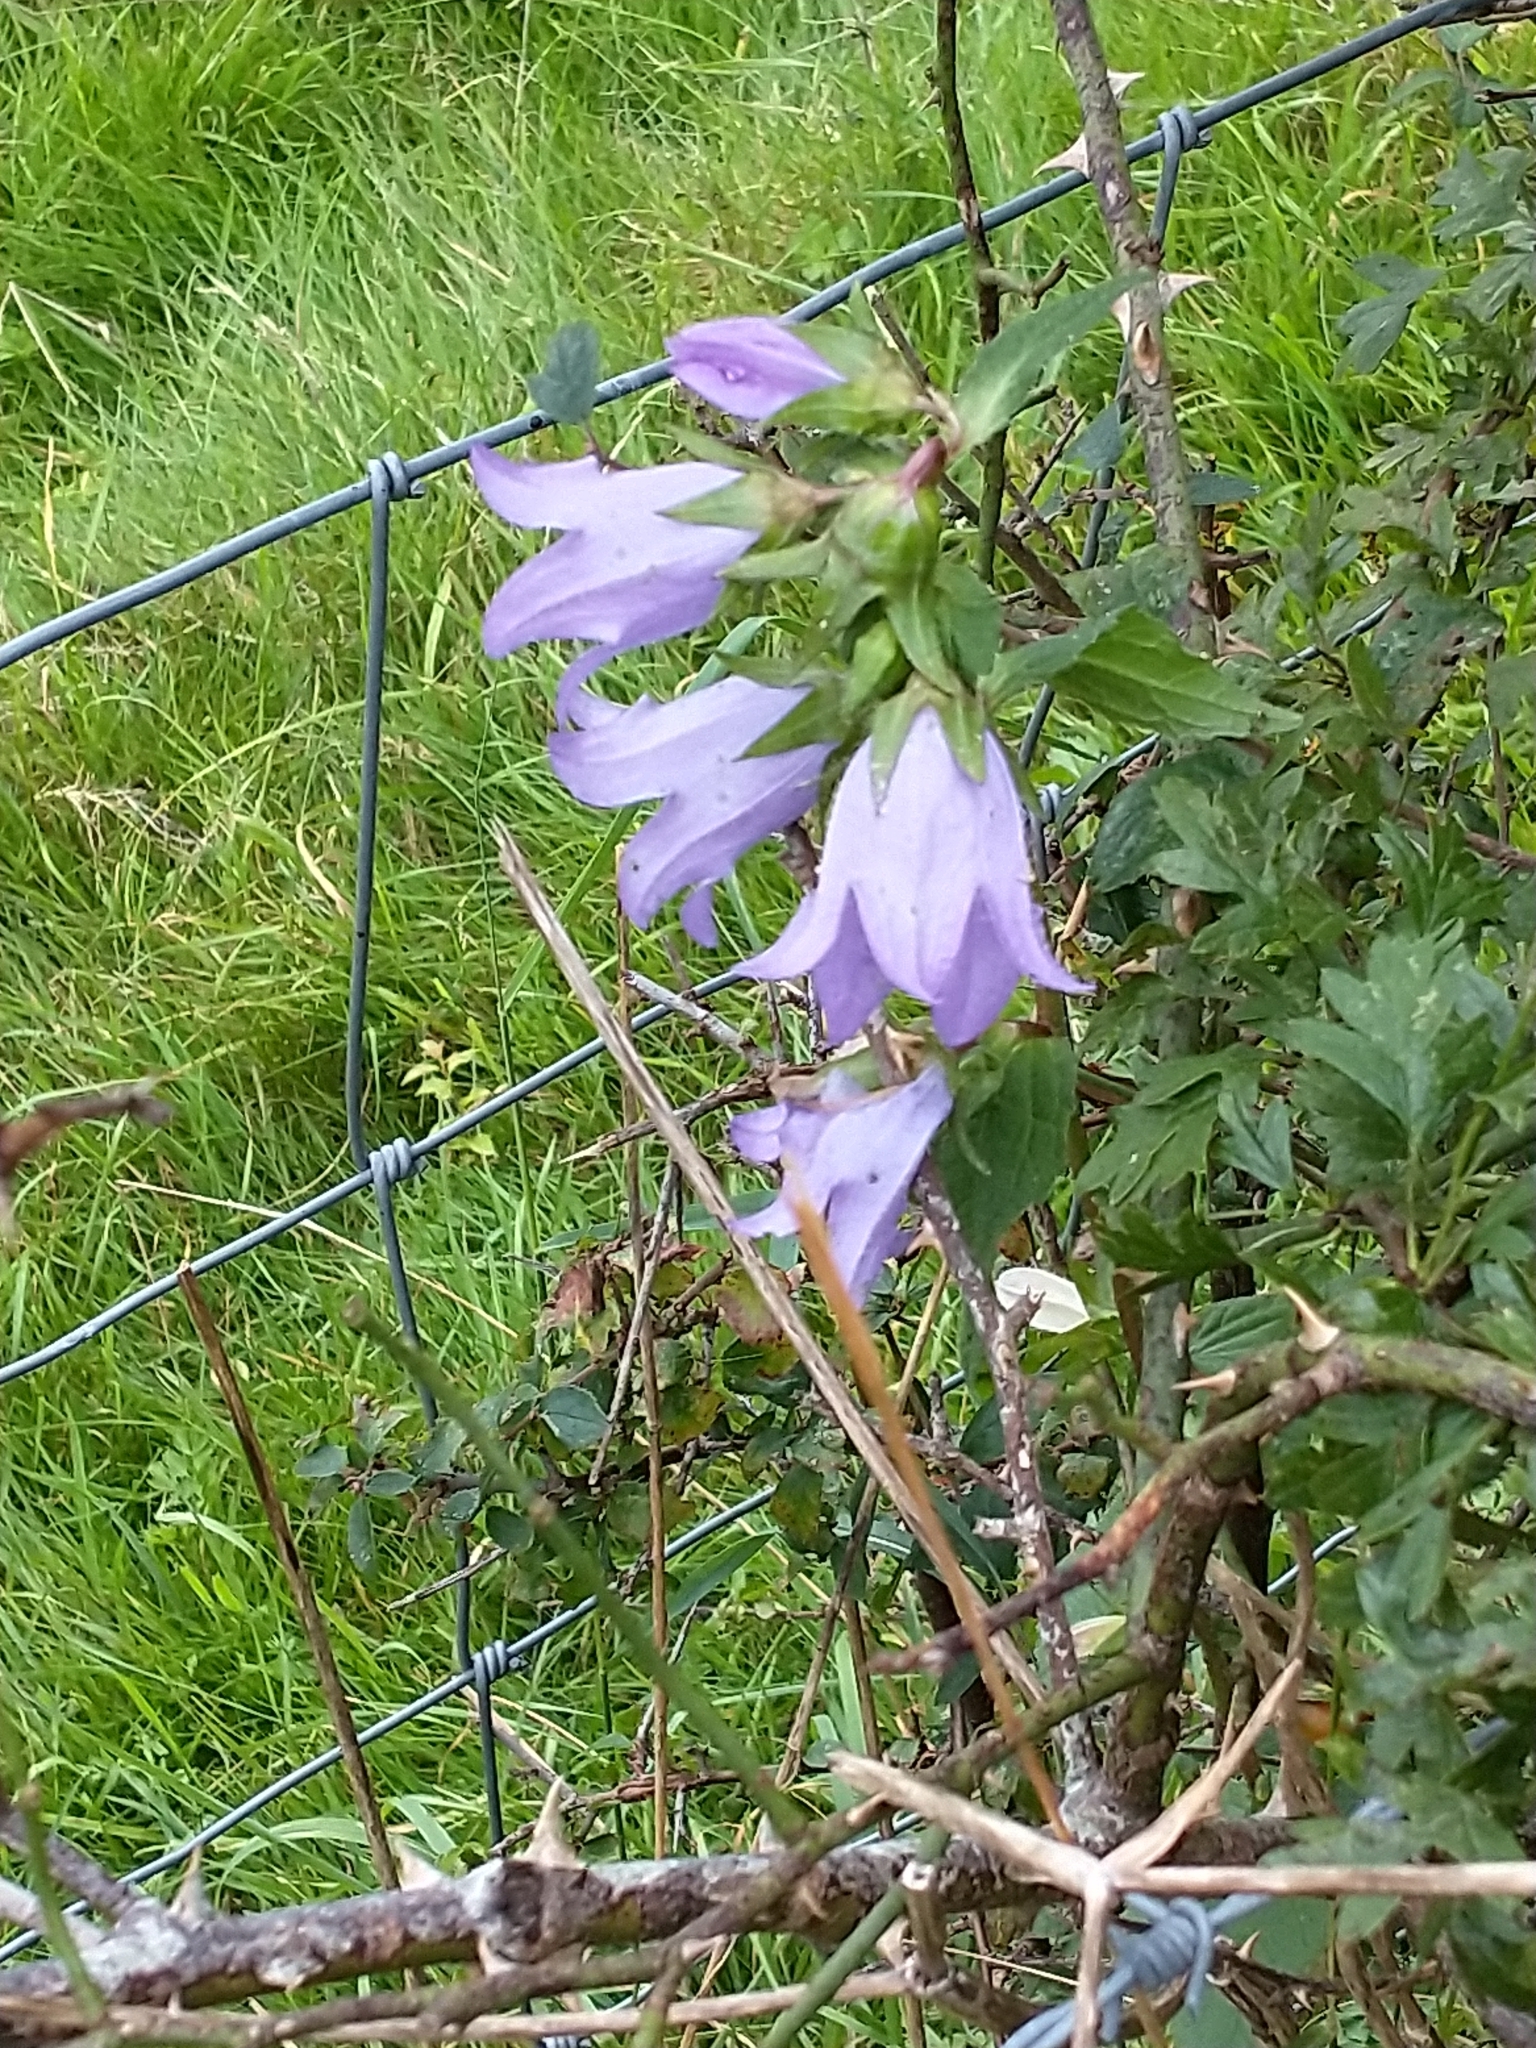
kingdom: Plantae
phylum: Tracheophyta
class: Magnoliopsida
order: Asterales
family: Campanulaceae
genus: Campanula
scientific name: Campanula trachelium
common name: Nettle-leaved bellflower
